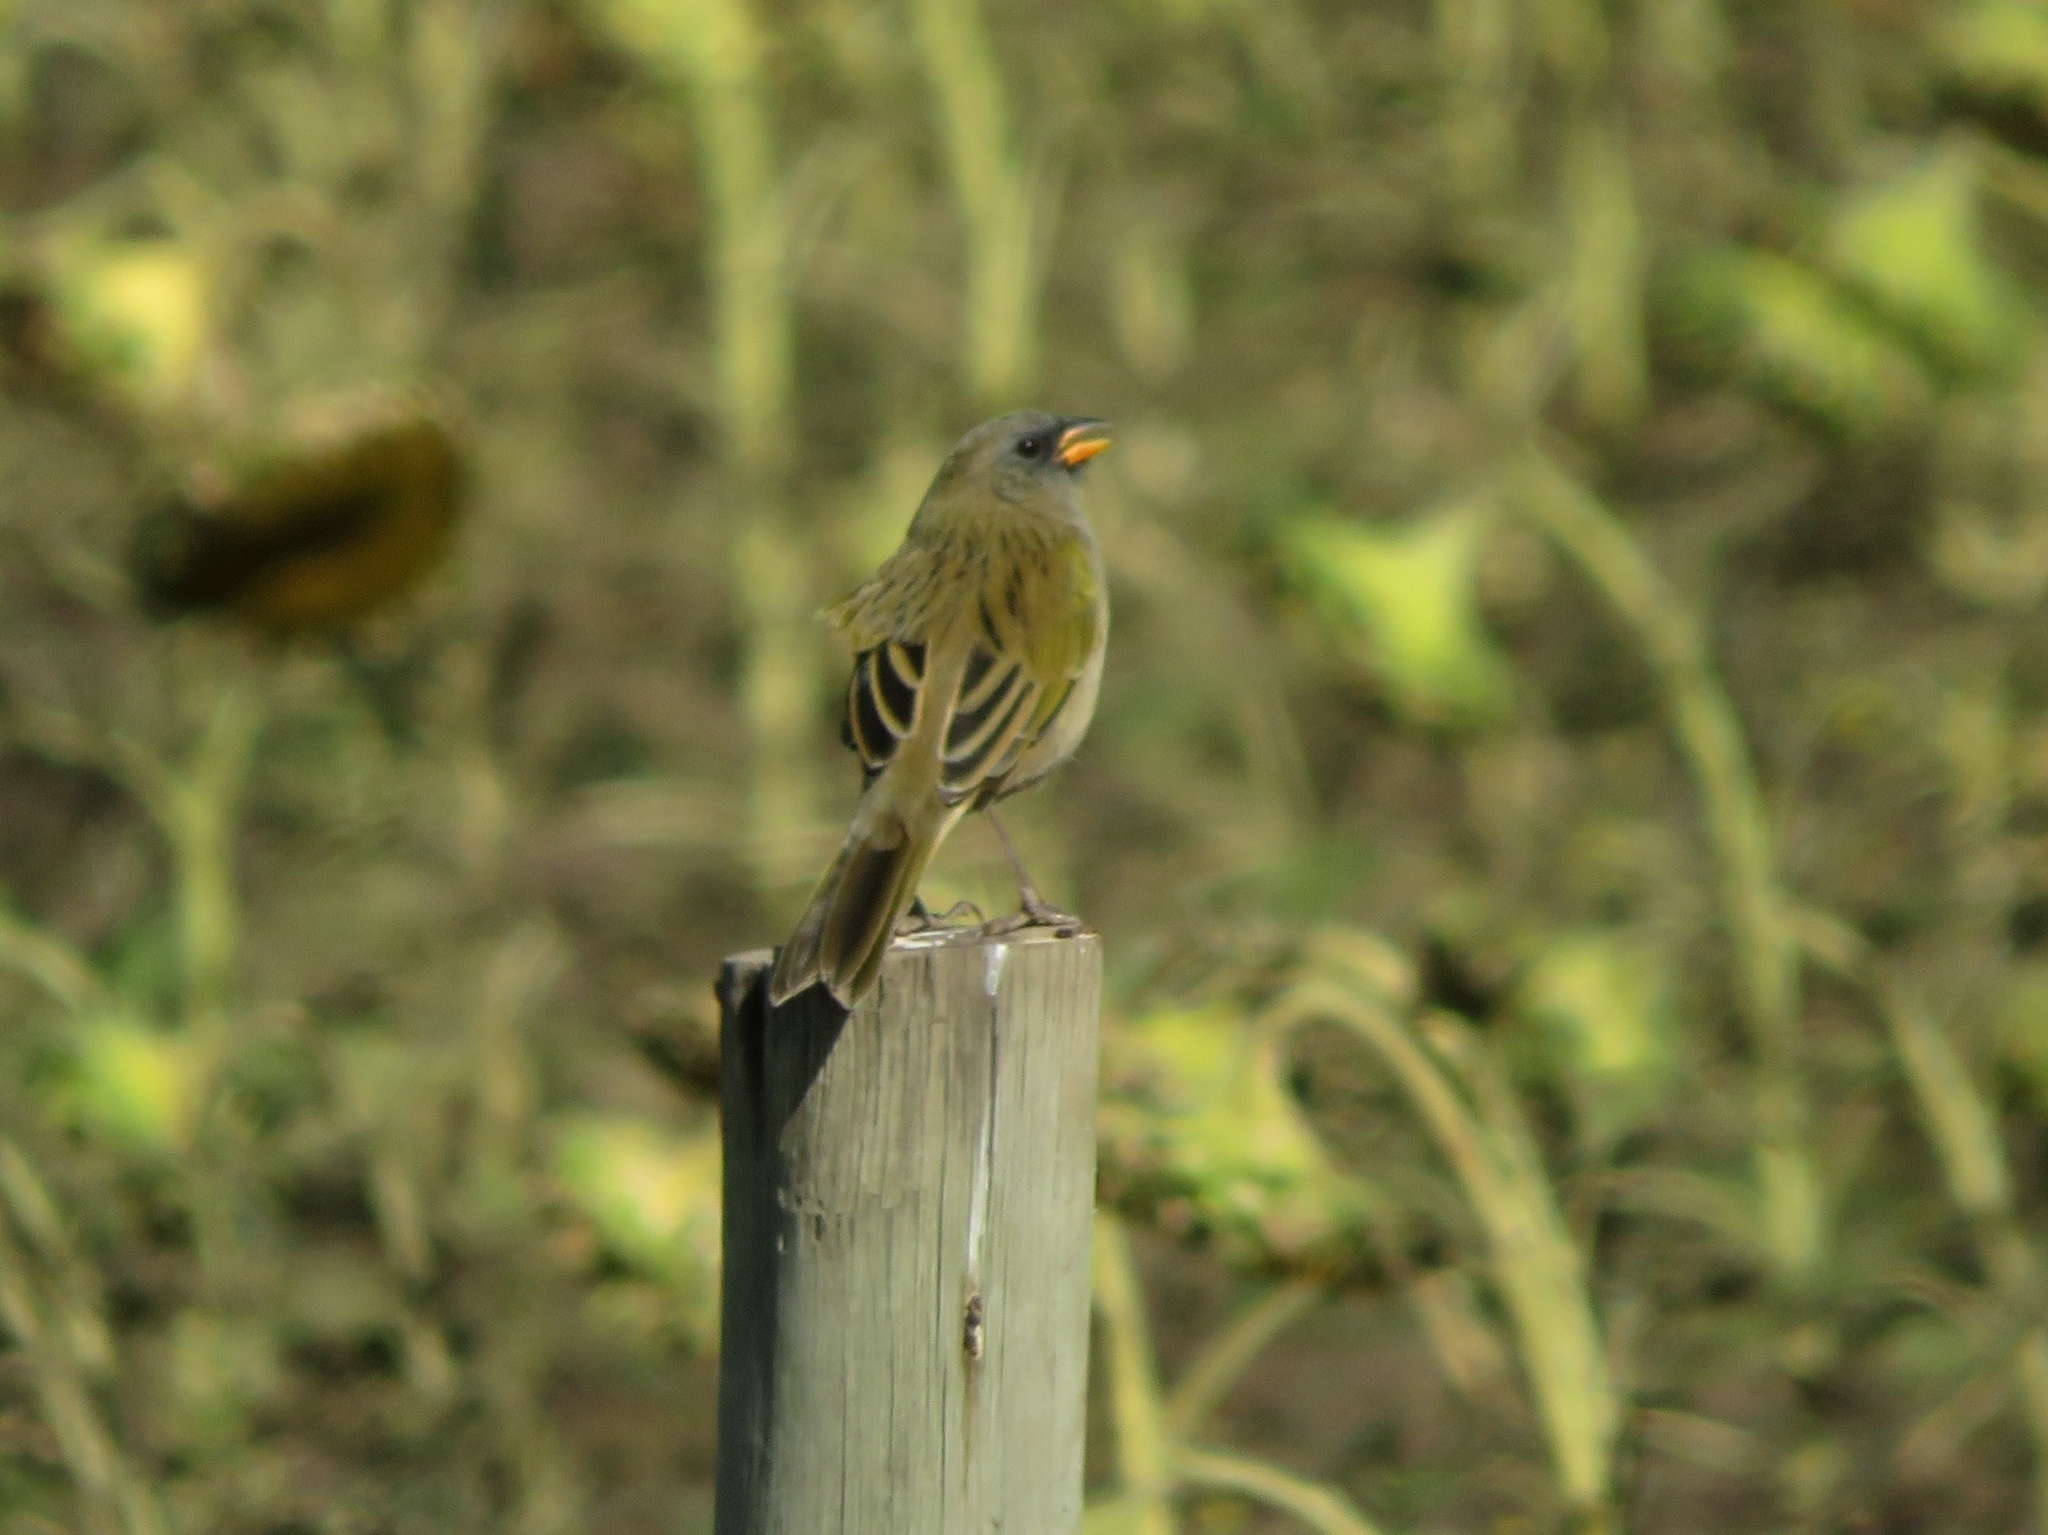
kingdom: Animalia
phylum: Chordata
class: Aves
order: Passeriformes
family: Thraupidae
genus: Embernagra
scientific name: Embernagra platensis
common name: Pampa finch
